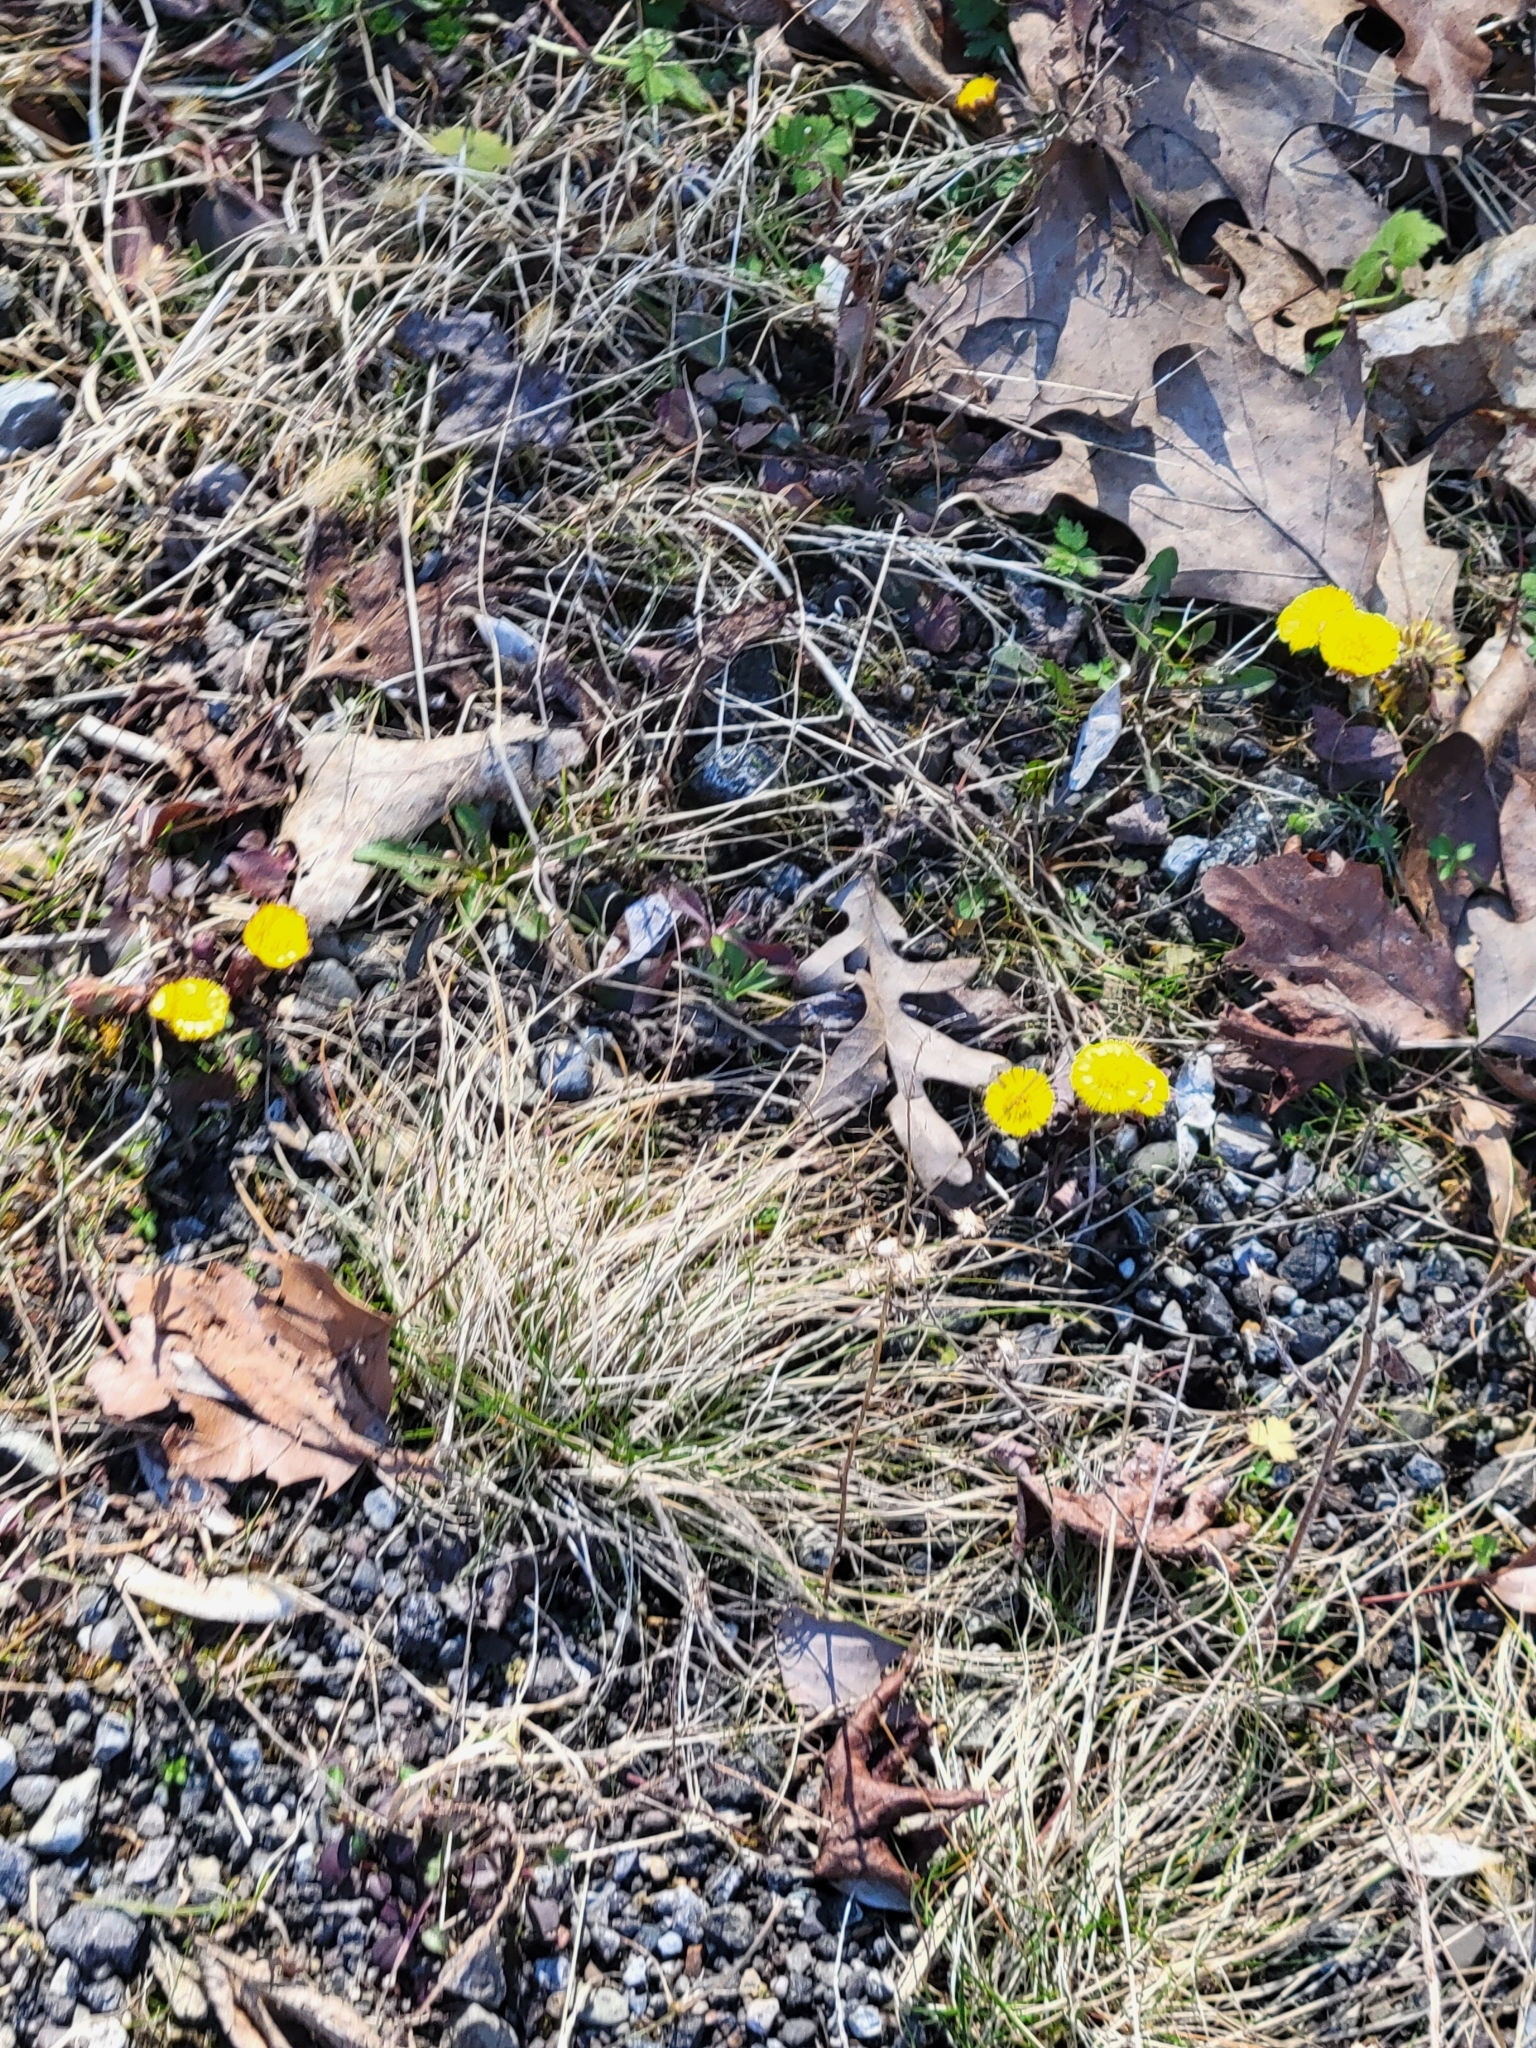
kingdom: Plantae
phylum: Tracheophyta
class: Magnoliopsida
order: Asterales
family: Asteraceae
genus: Tussilago
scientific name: Tussilago farfara
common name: Coltsfoot
